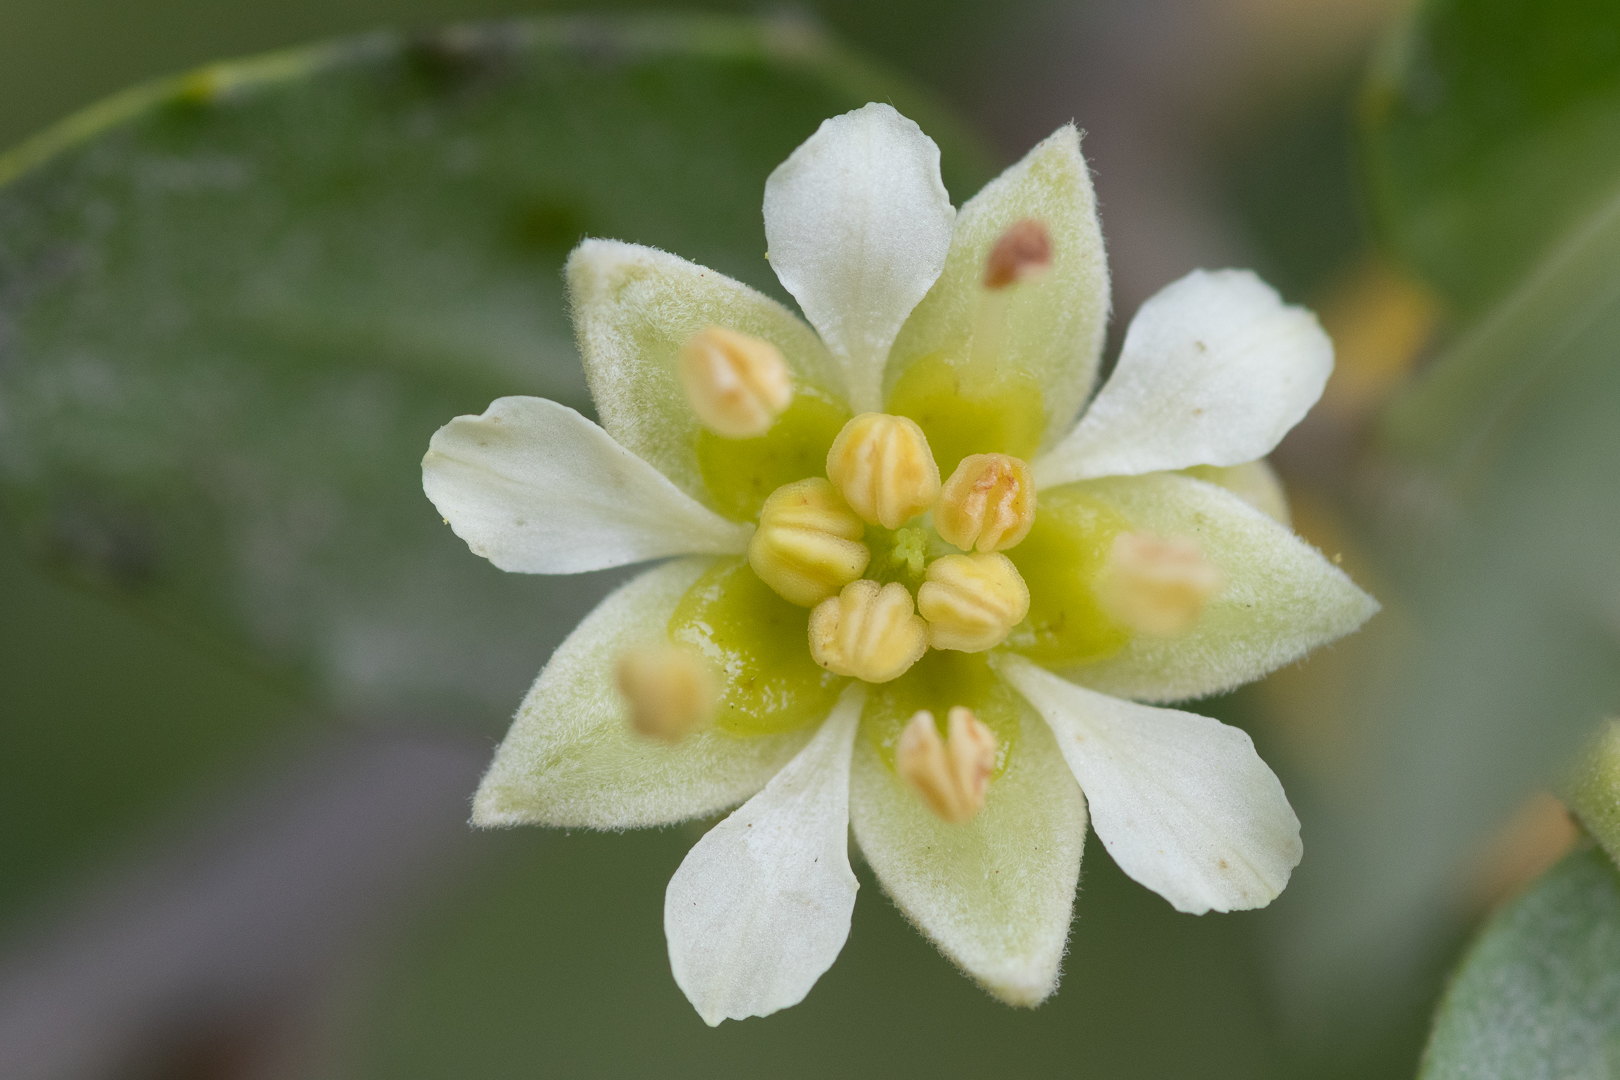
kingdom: Plantae
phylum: Tracheophyta
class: Magnoliopsida
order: Fabales
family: Quillajaceae
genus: Quillaja
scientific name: Quillaja saponaria
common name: Murillo's-bark
